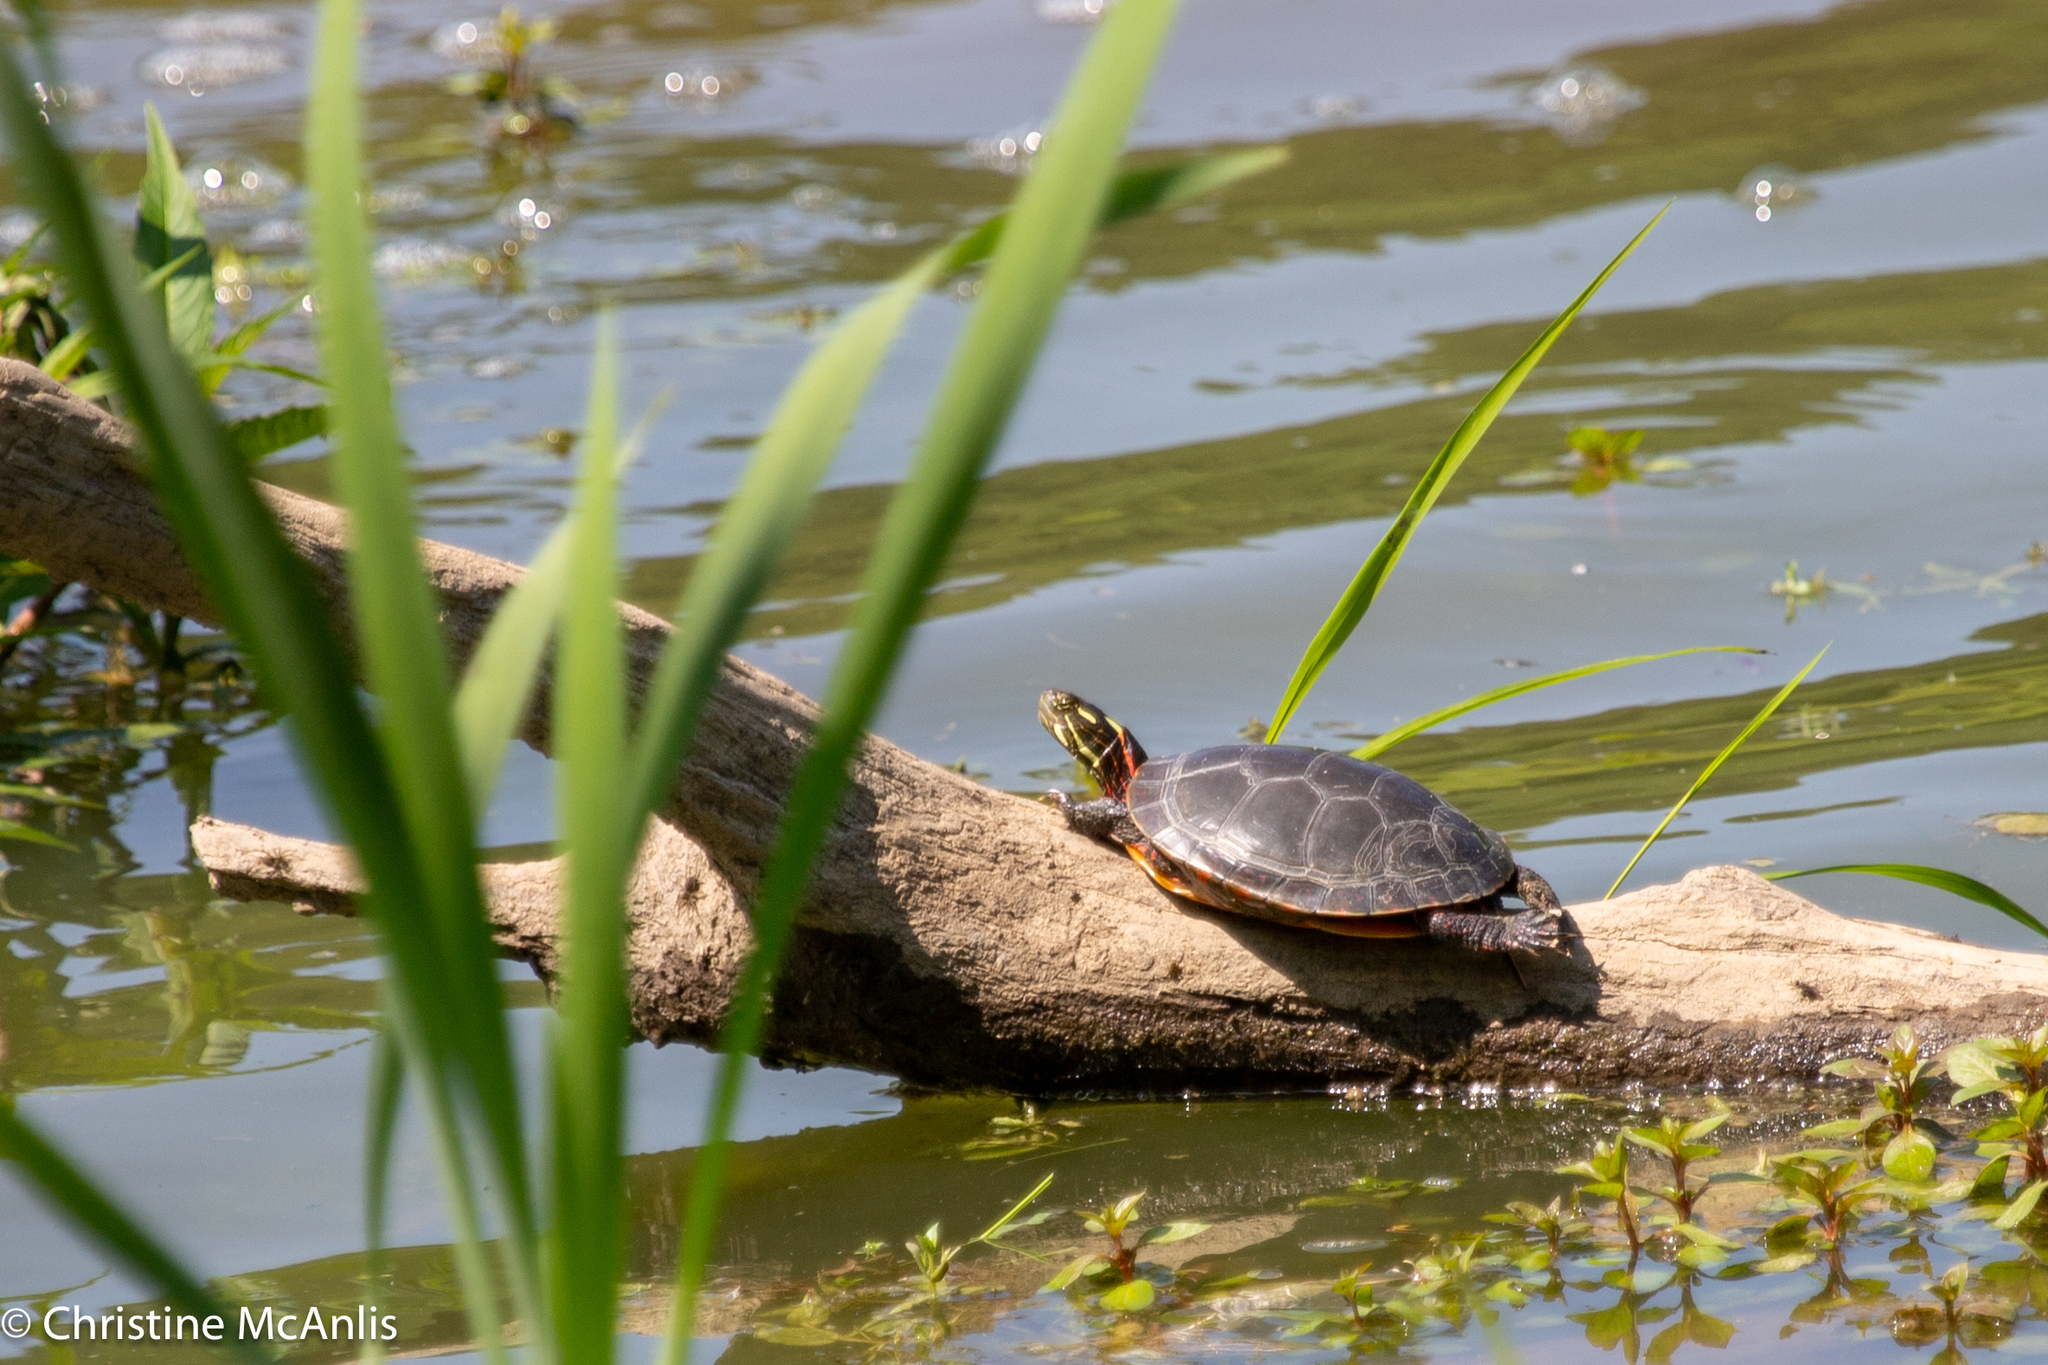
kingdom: Animalia
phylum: Chordata
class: Testudines
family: Emydidae
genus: Chrysemys
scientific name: Chrysemys picta
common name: Painted turtle
